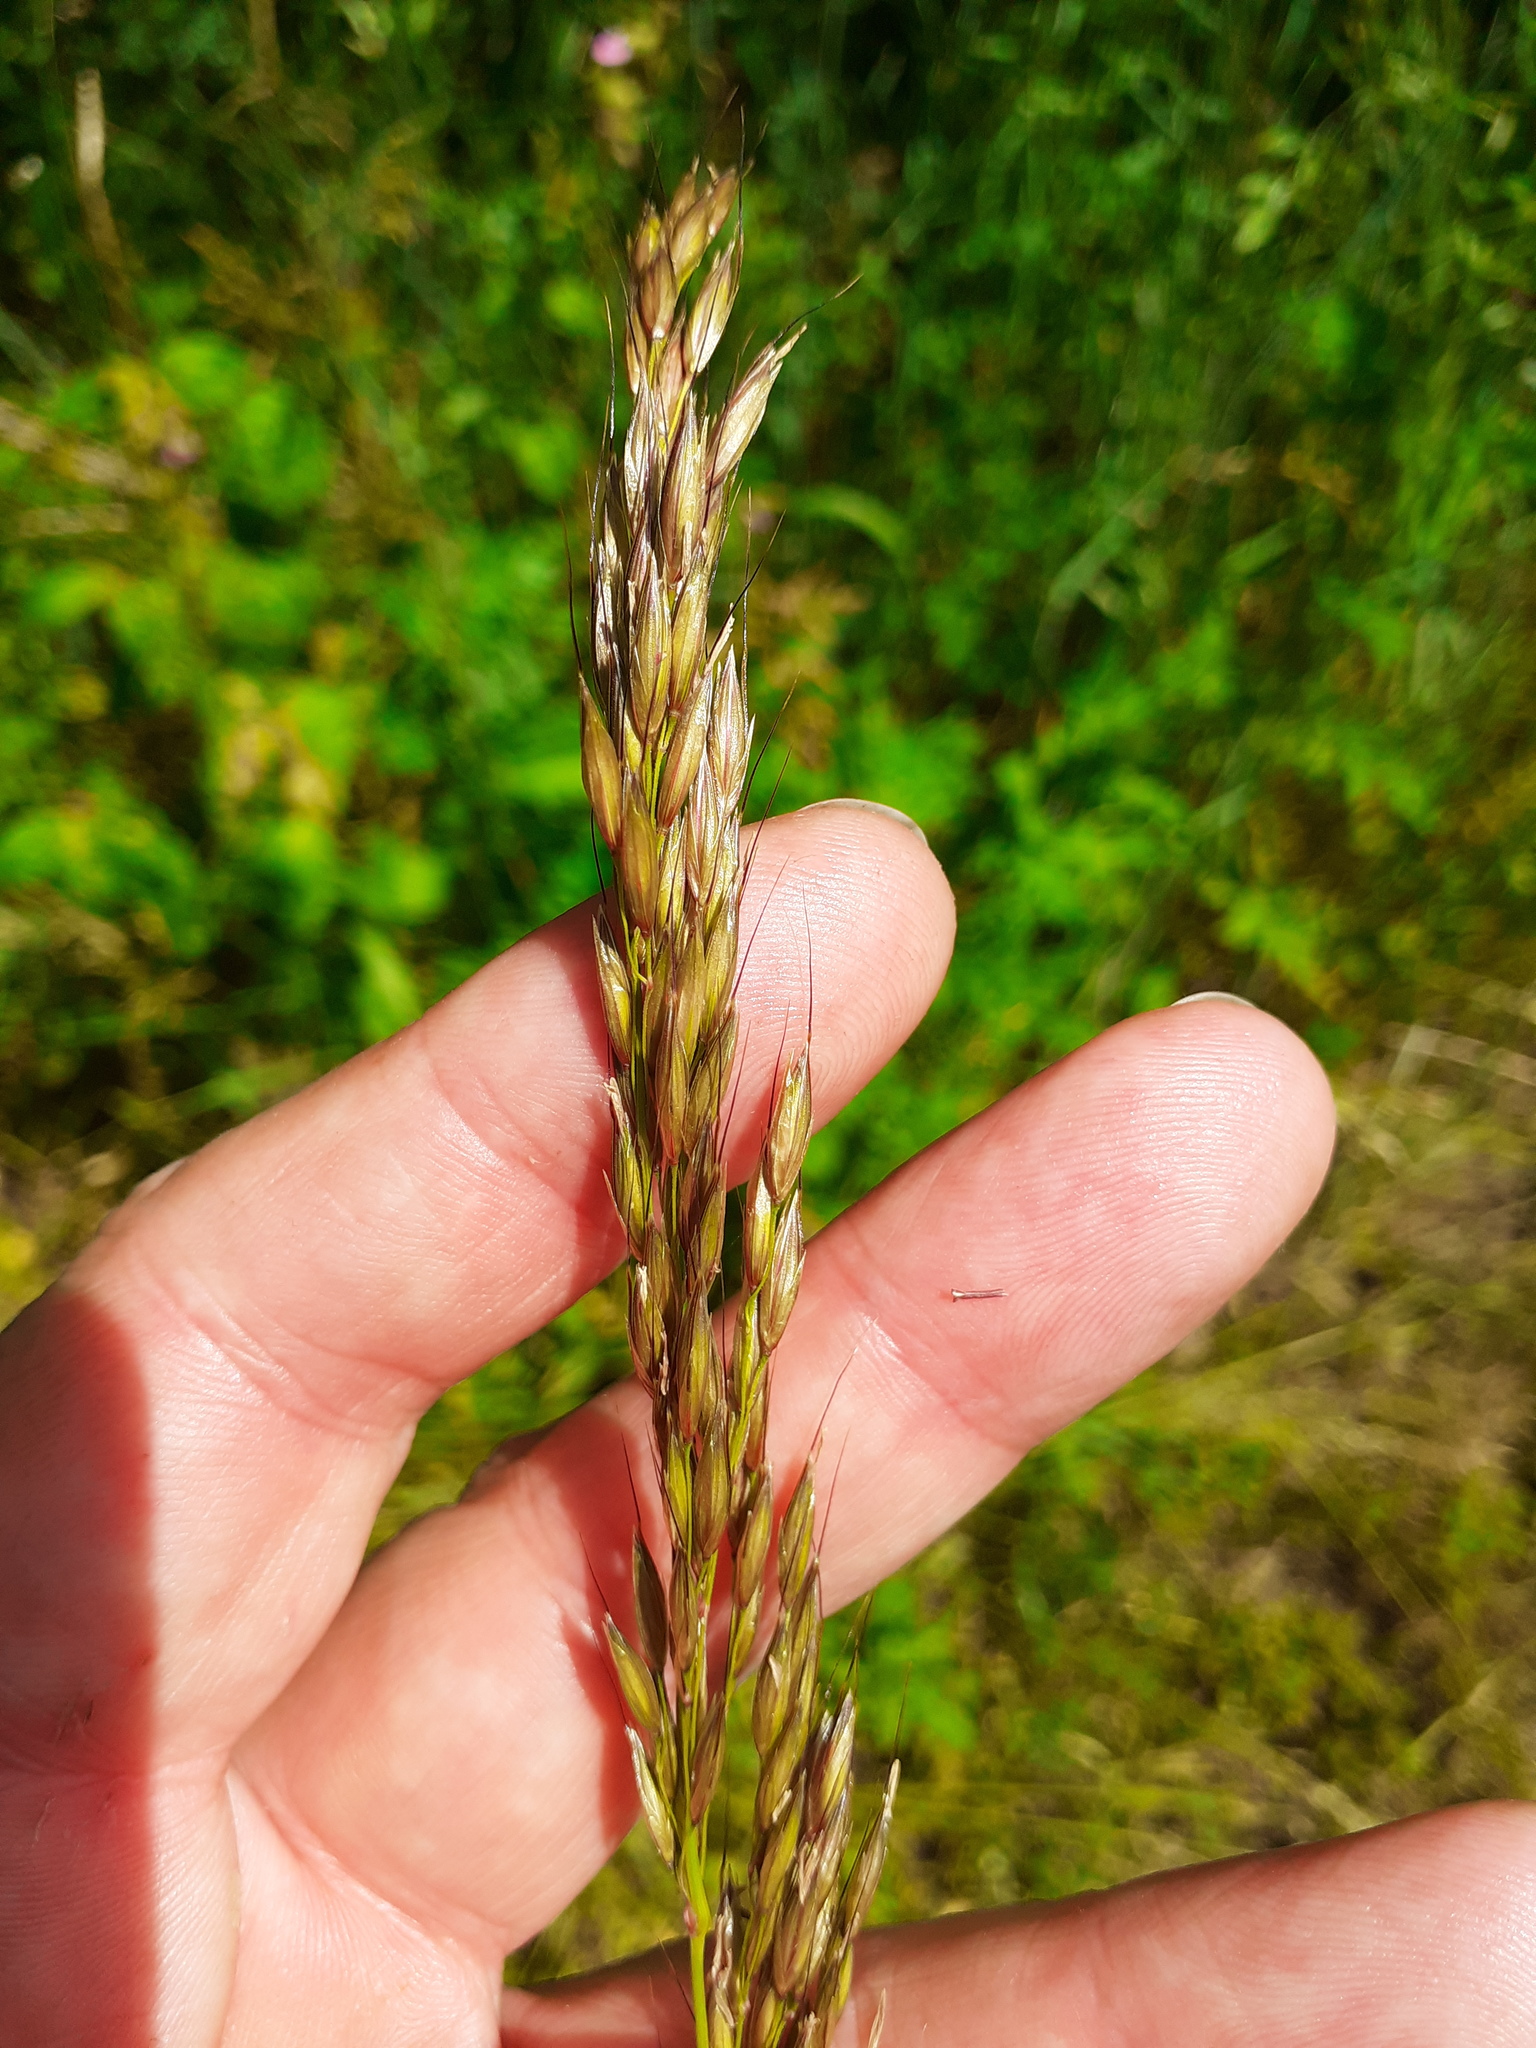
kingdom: Plantae
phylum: Tracheophyta
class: Liliopsida
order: Poales
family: Poaceae
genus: Arrhenatherum
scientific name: Arrhenatherum elatius
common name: Tall oatgrass
